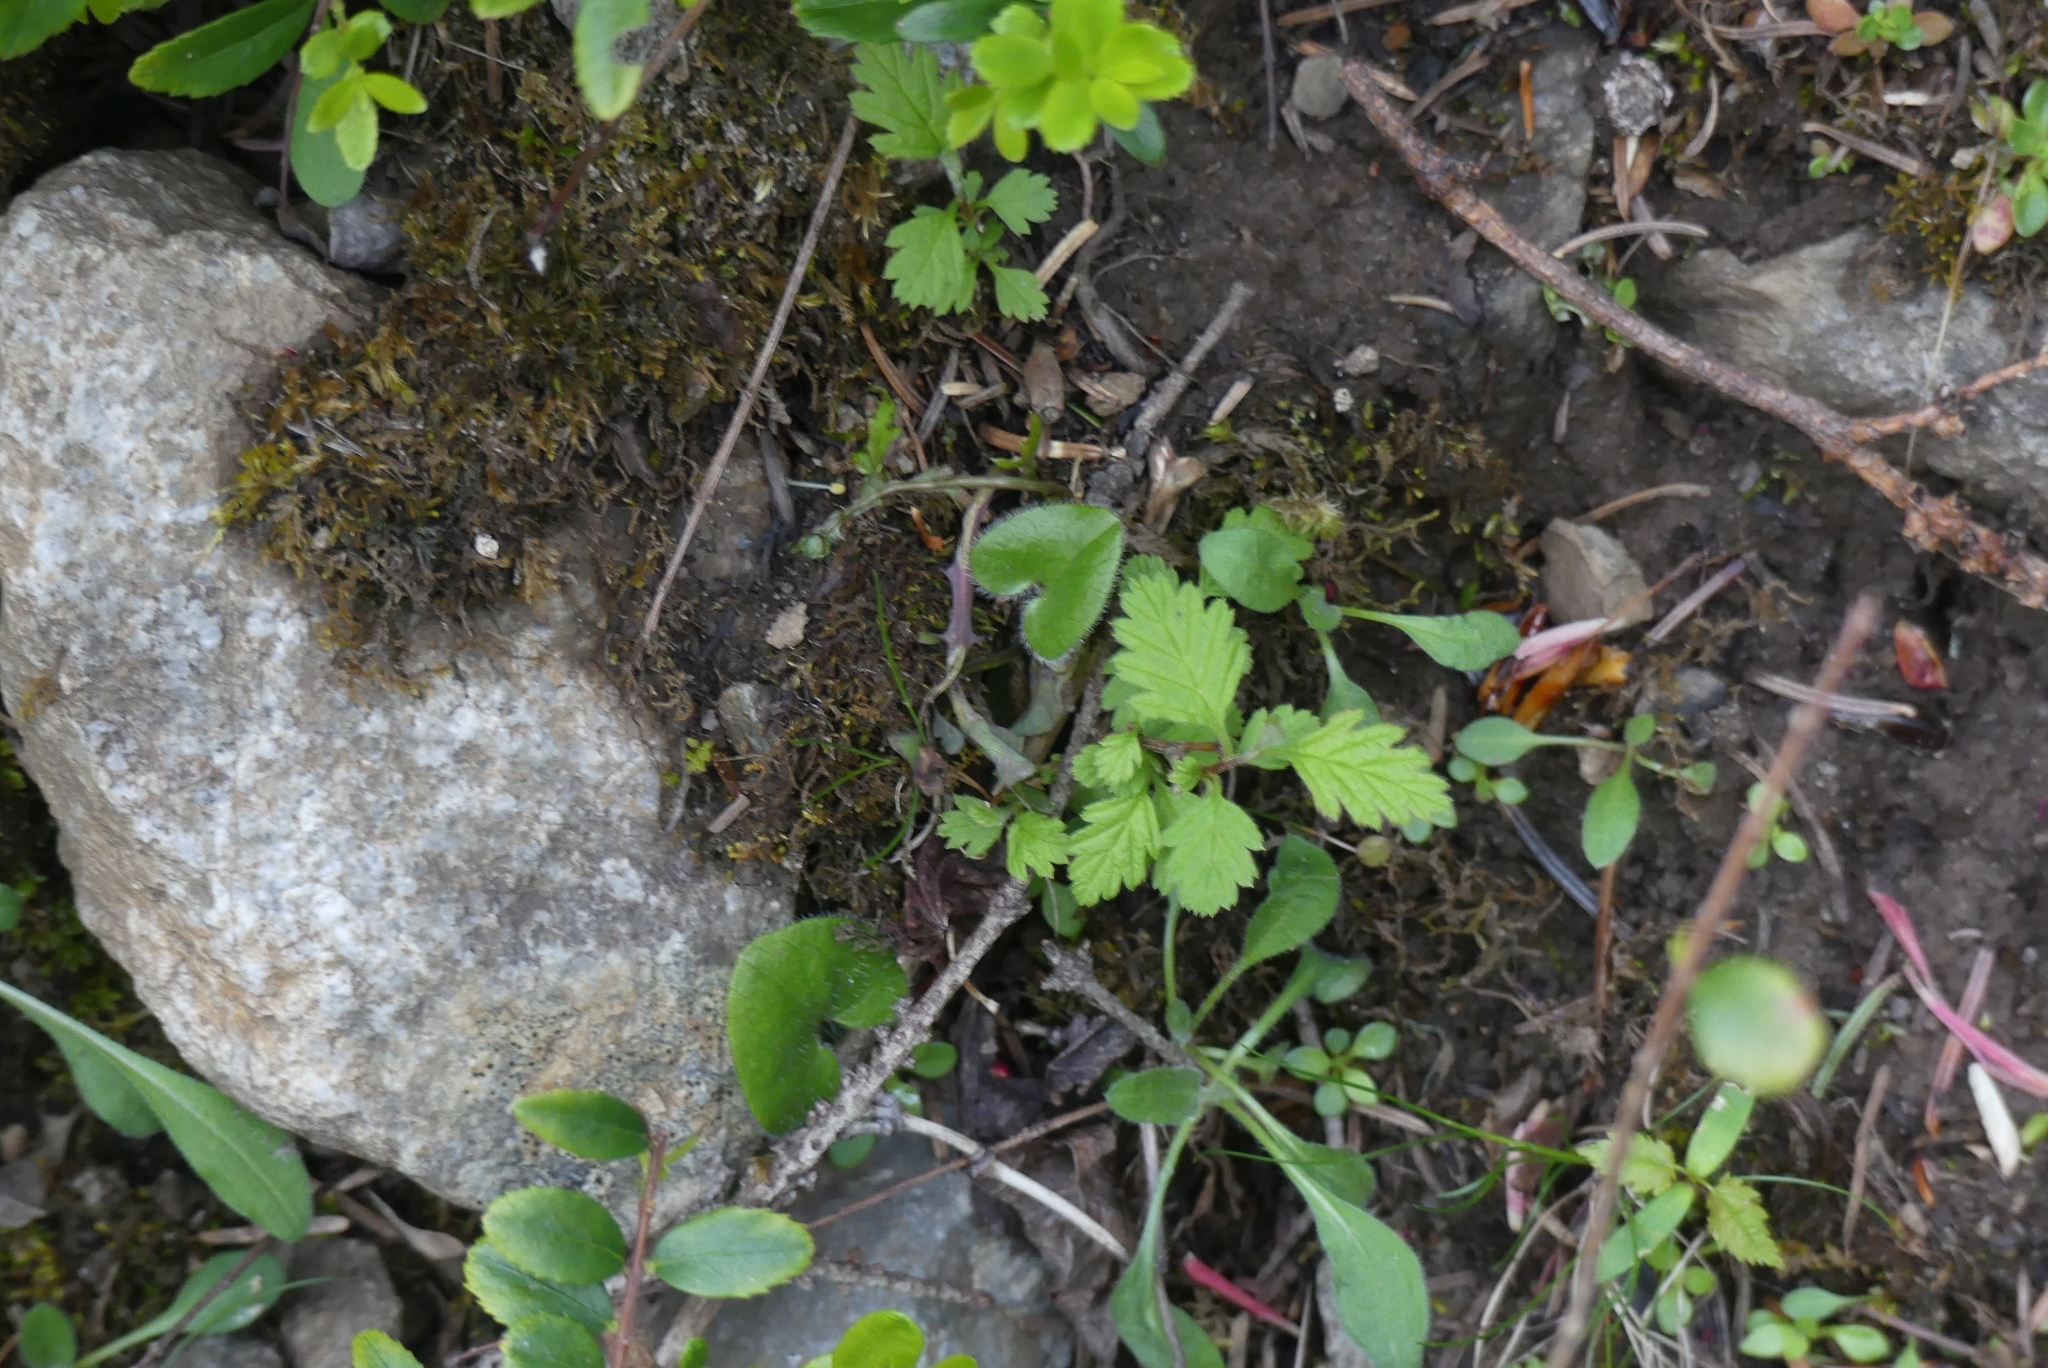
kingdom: Plantae
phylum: Tracheophyta
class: Magnoliopsida
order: Rosales
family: Rosaceae
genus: Holodiscus
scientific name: Holodiscus discolor
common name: Oceanspray
